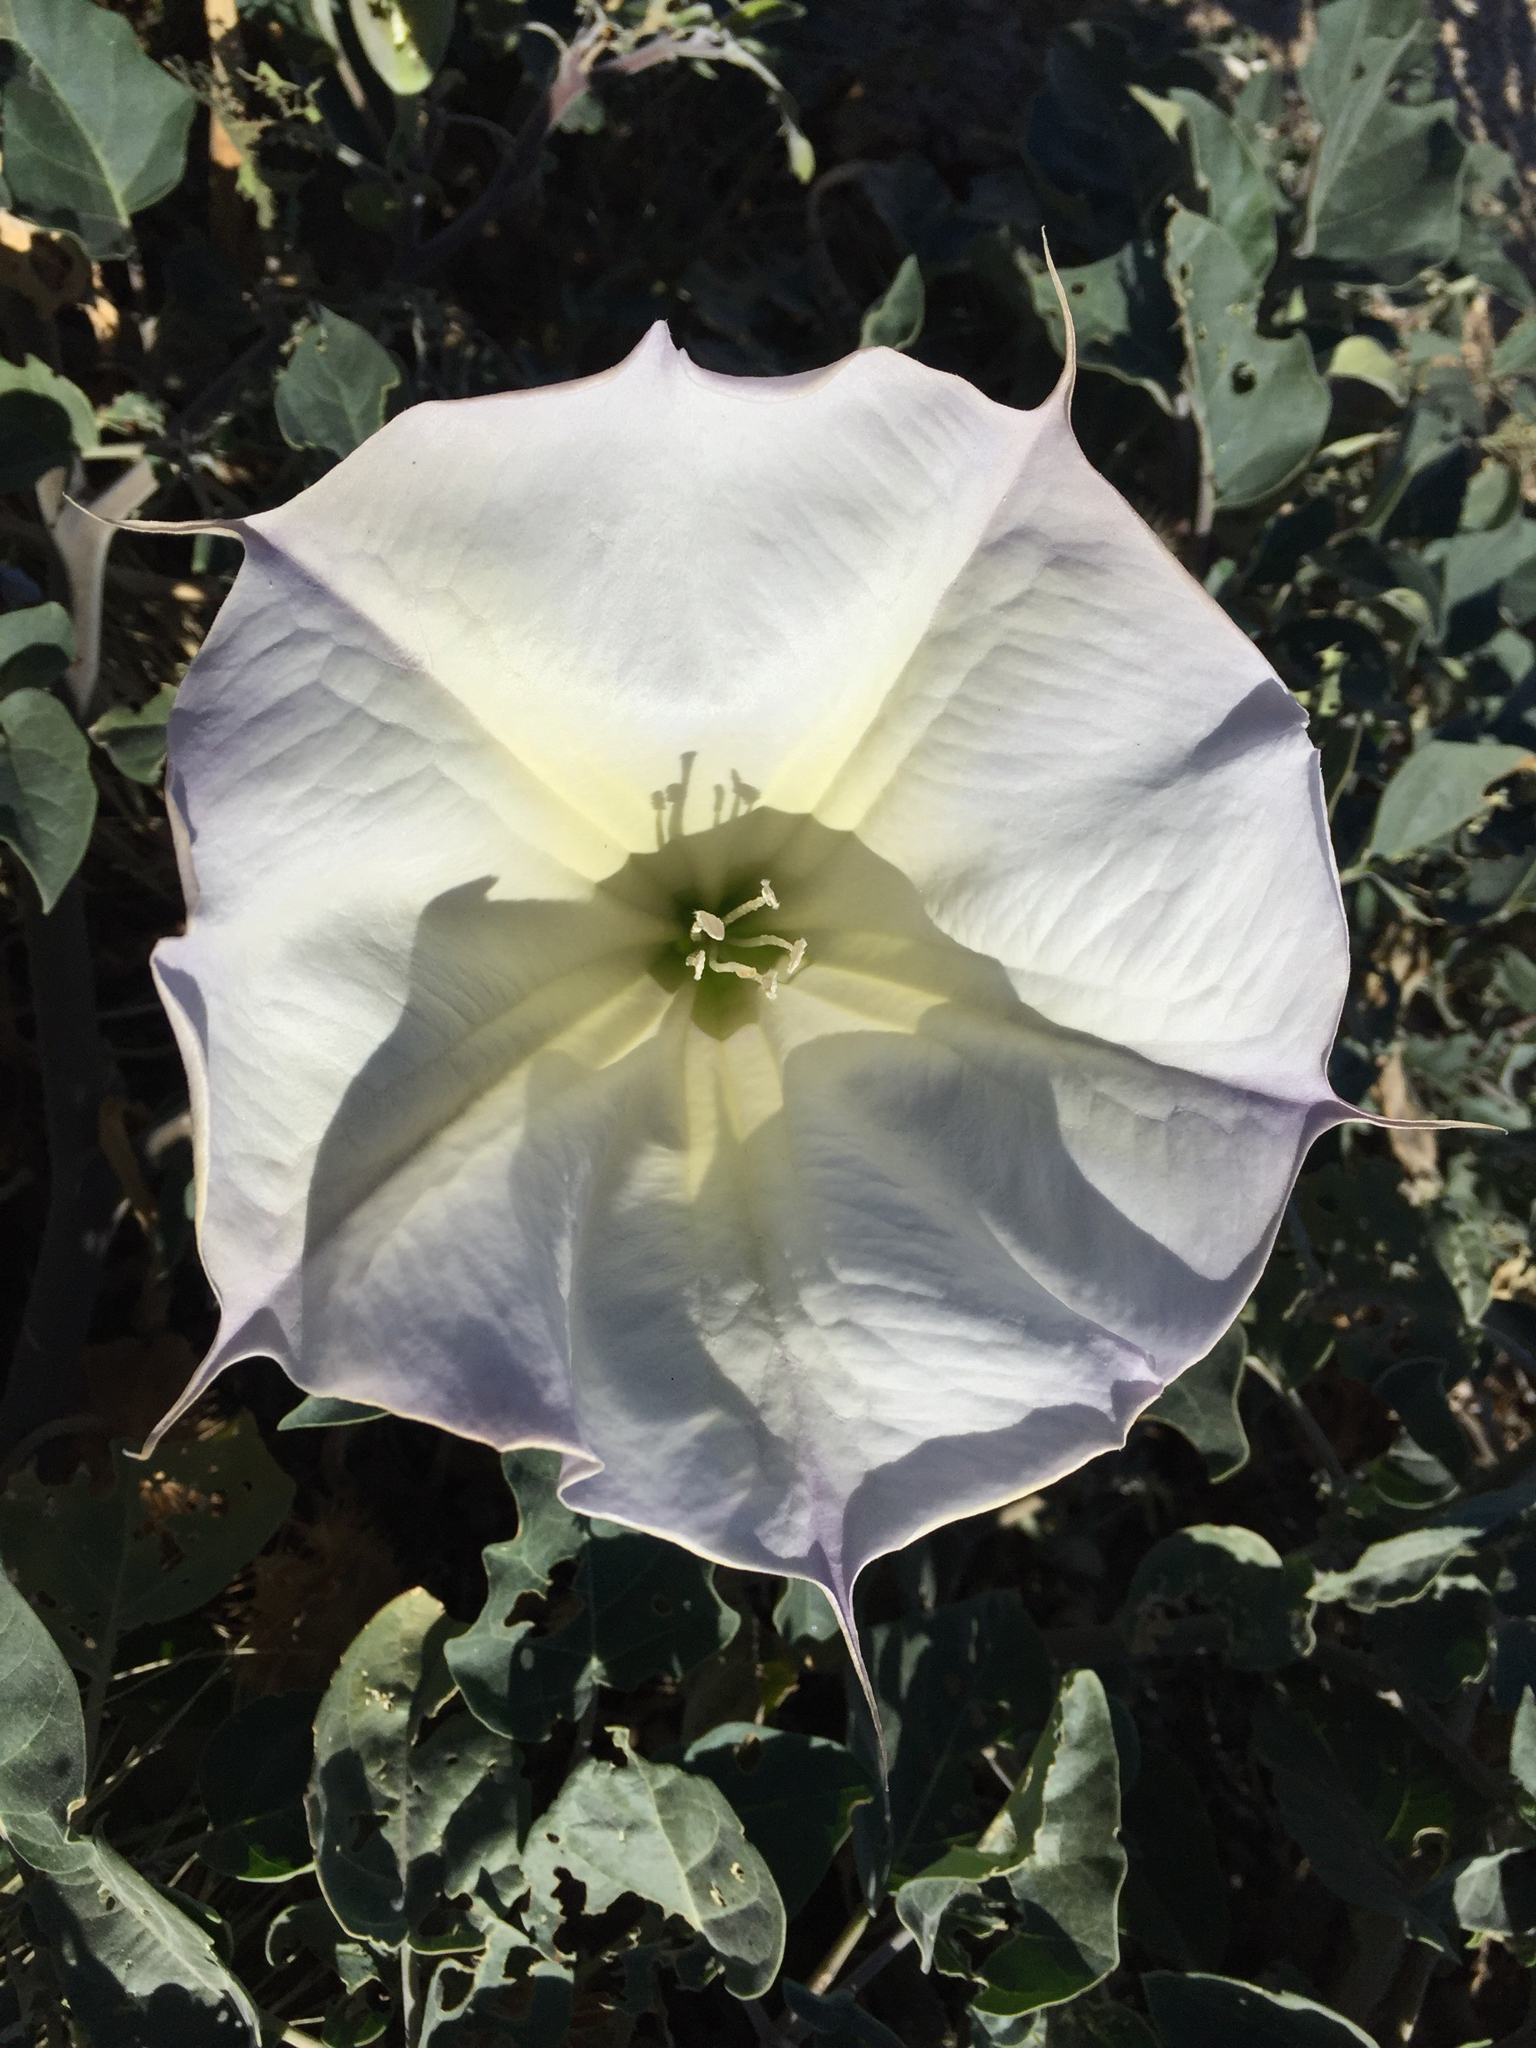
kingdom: Plantae
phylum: Tracheophyta
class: Magnoliopsida
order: Solanales
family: Solanaceae
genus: Datura
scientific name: Datura wrightii
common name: Sacred thorn-apple
